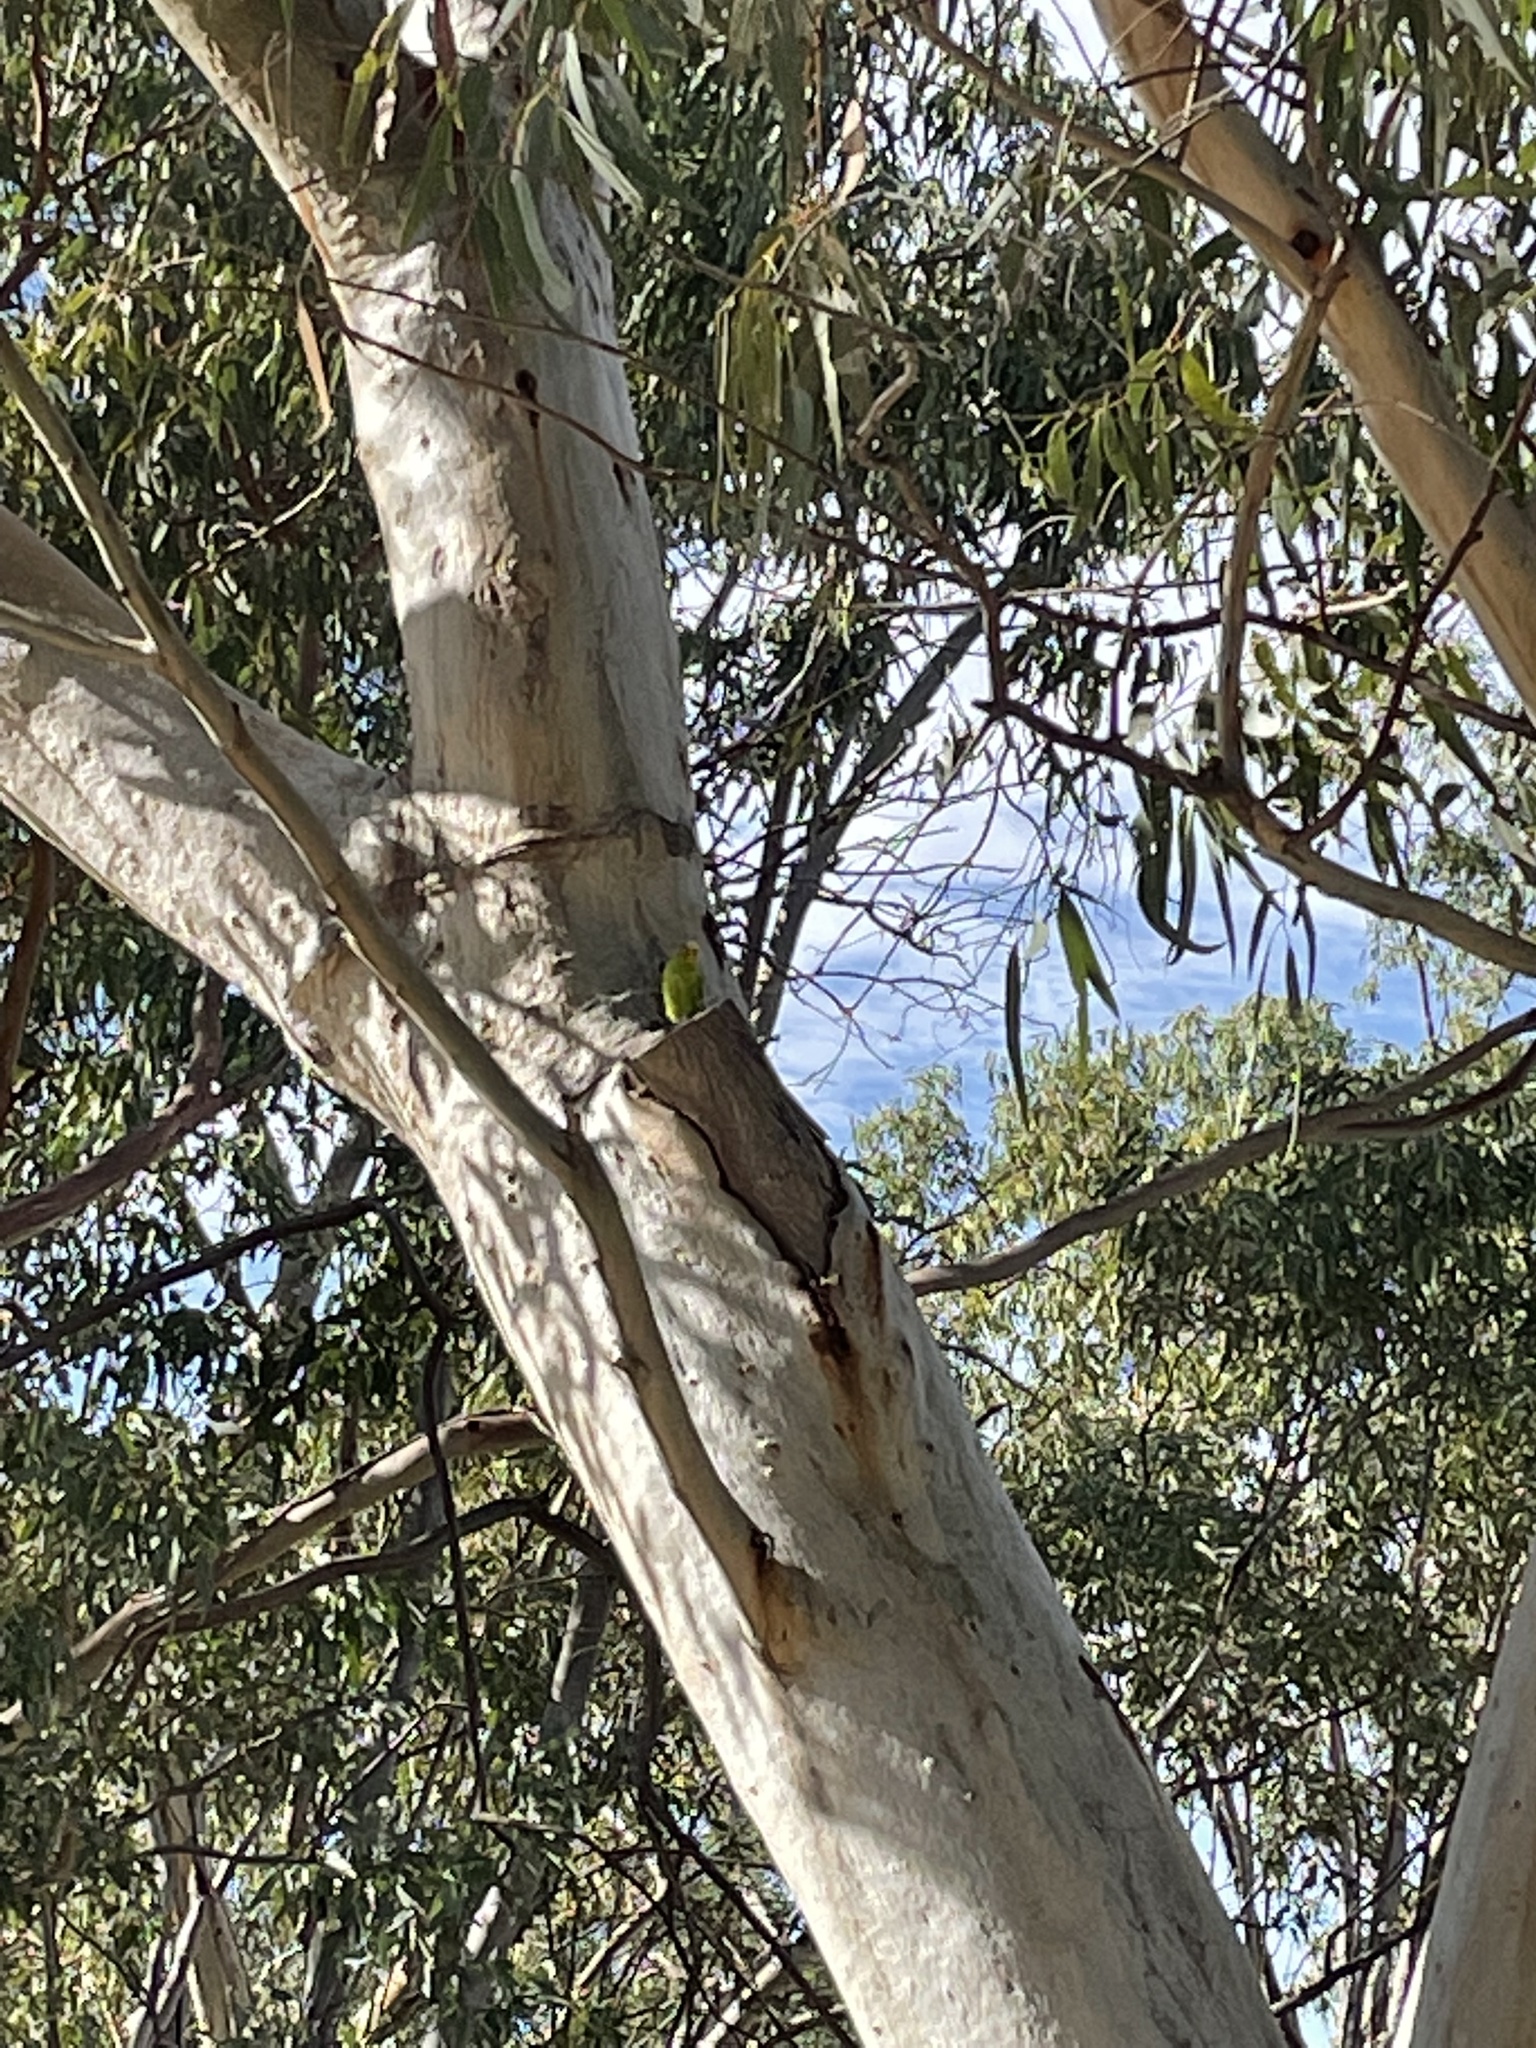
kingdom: Animalia
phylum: Chordata
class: Aves
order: Psittaciformes
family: Psittacidae
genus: Melopsittacus
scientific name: Melopsittacus undulatus
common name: Budgerigar
